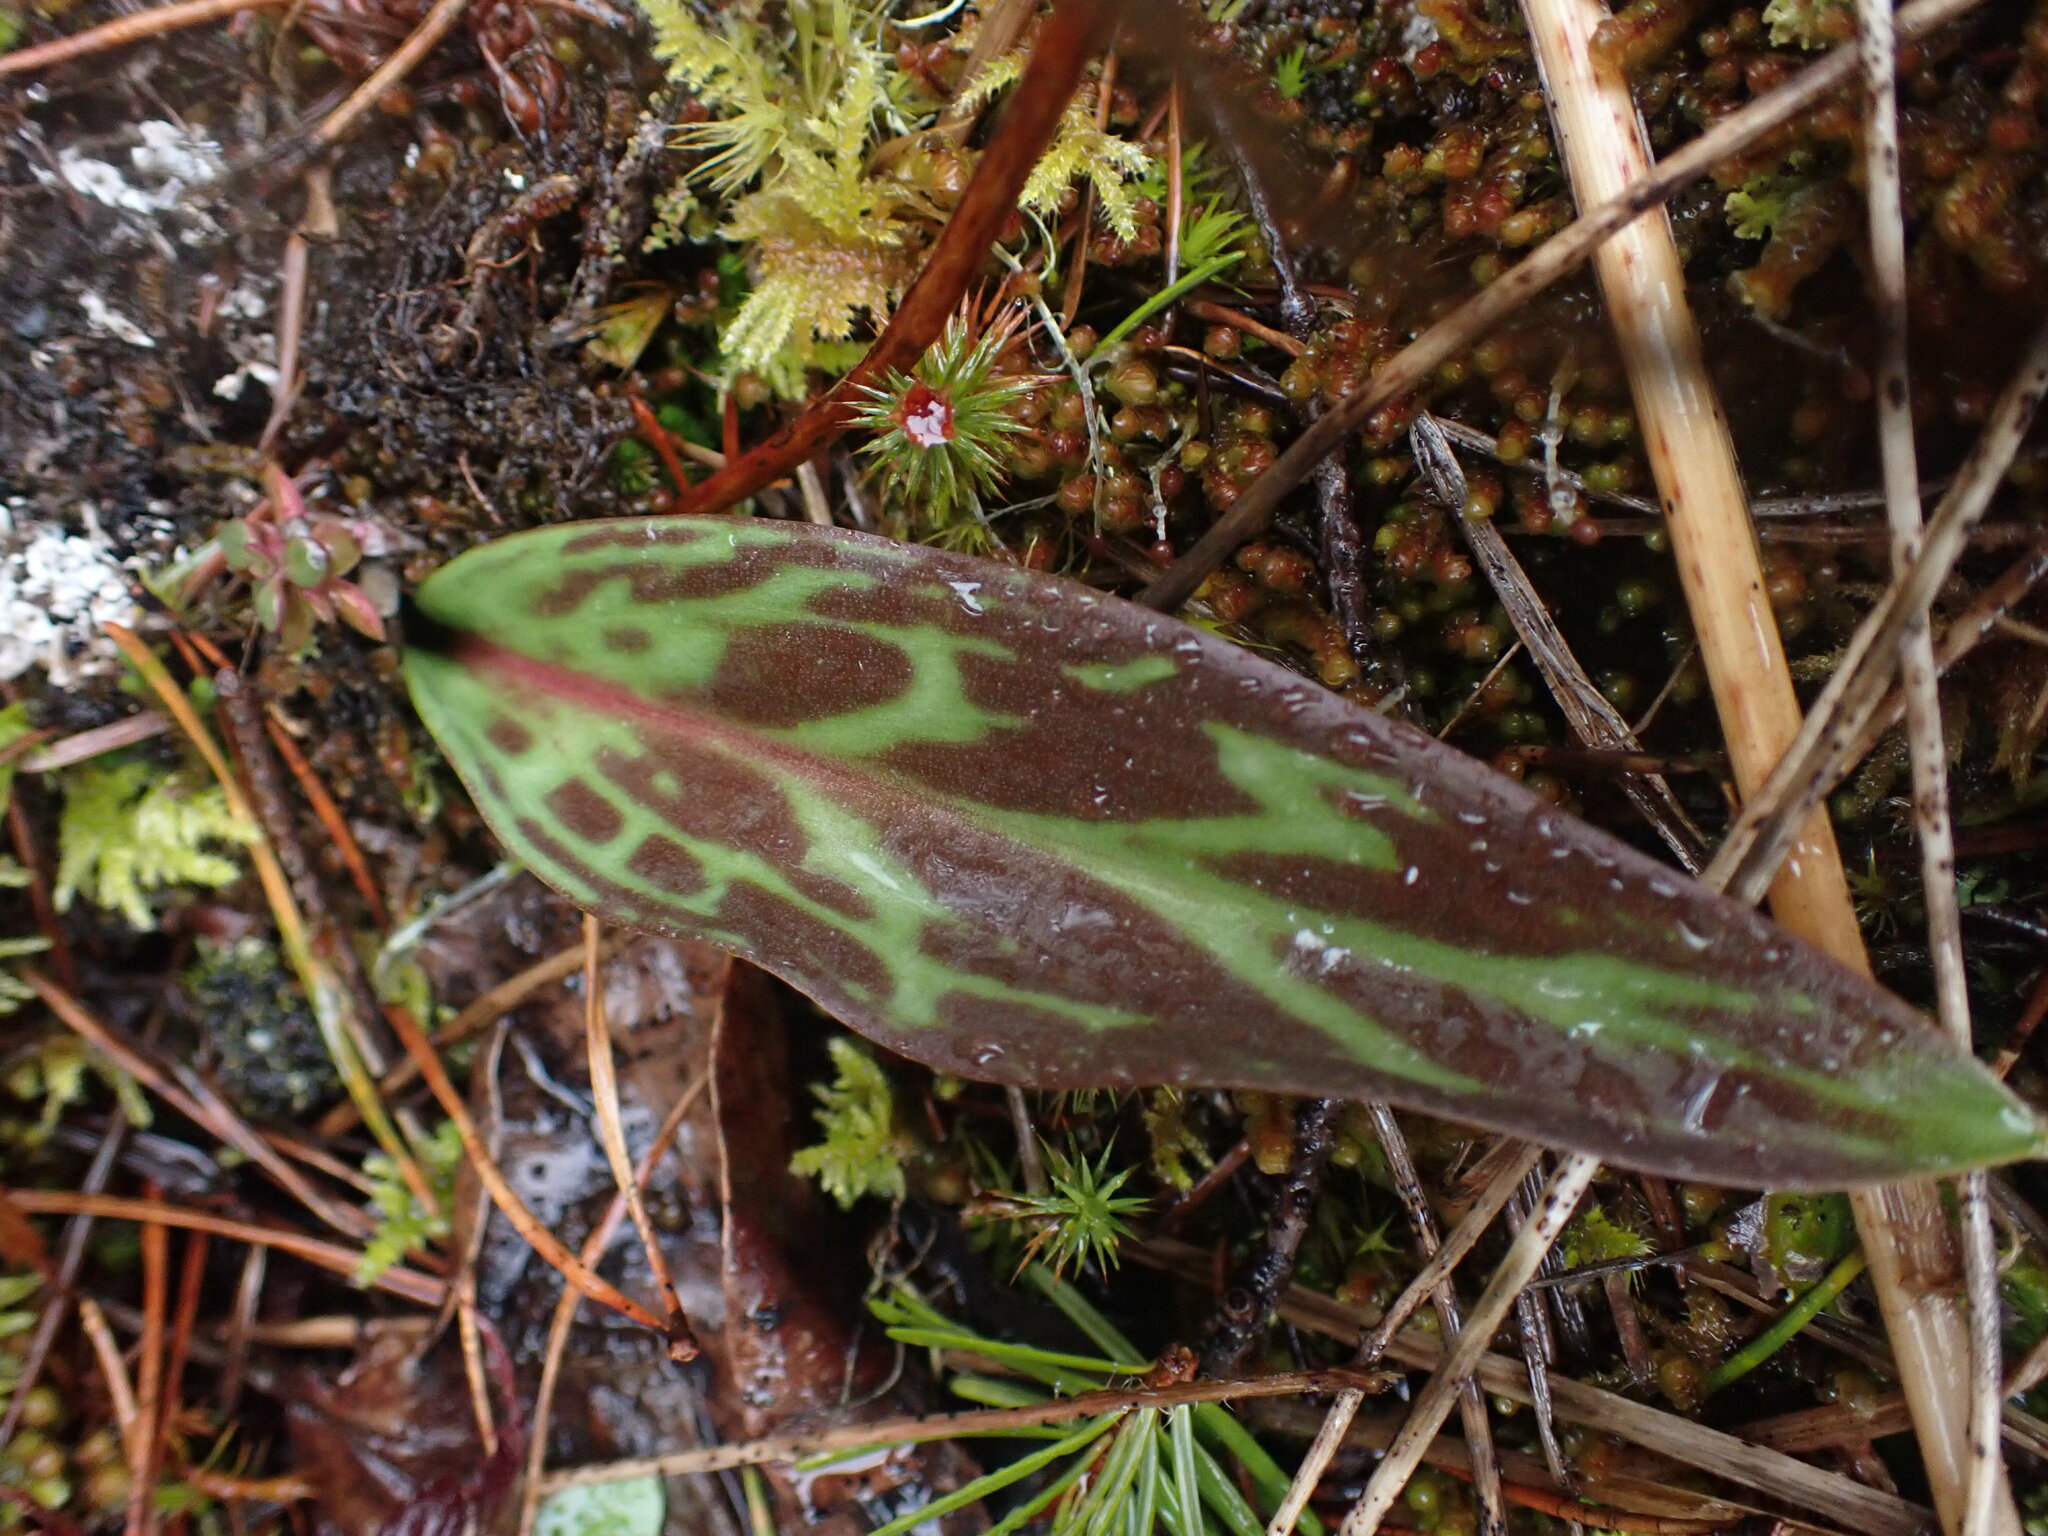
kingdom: Plantae
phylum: Tracheophyta
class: Liliopsida
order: Liliales
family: Liliaceae
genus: Erythronium
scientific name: Erythronium oregonum
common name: Giant adder's-tongue
